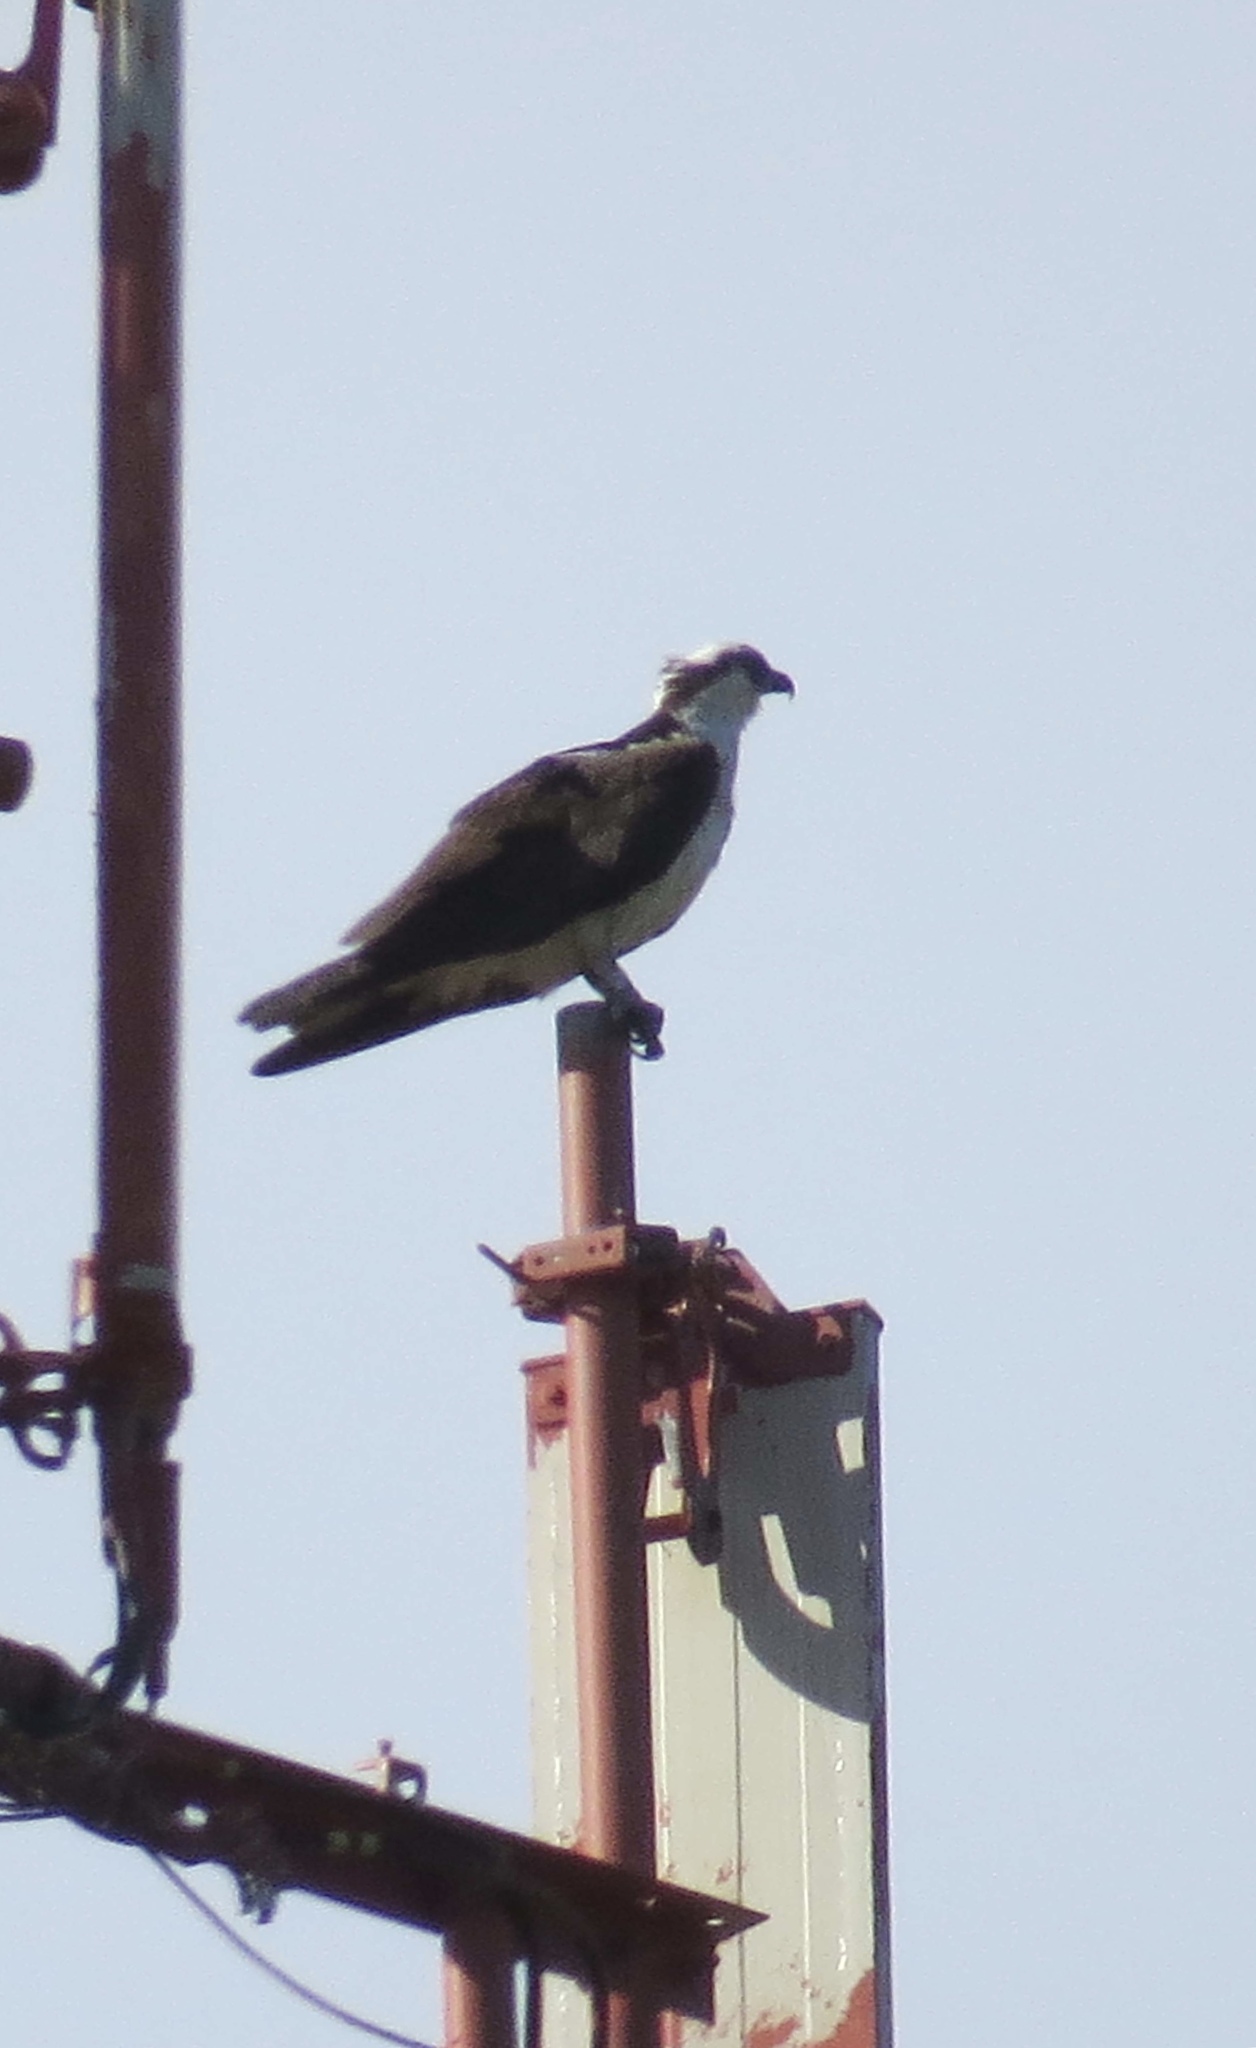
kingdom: Animalia
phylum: Chordata
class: Aves
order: Accipitriformes
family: Pandionidae
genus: Pandion
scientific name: Pandion haliaetus
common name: Osprey
